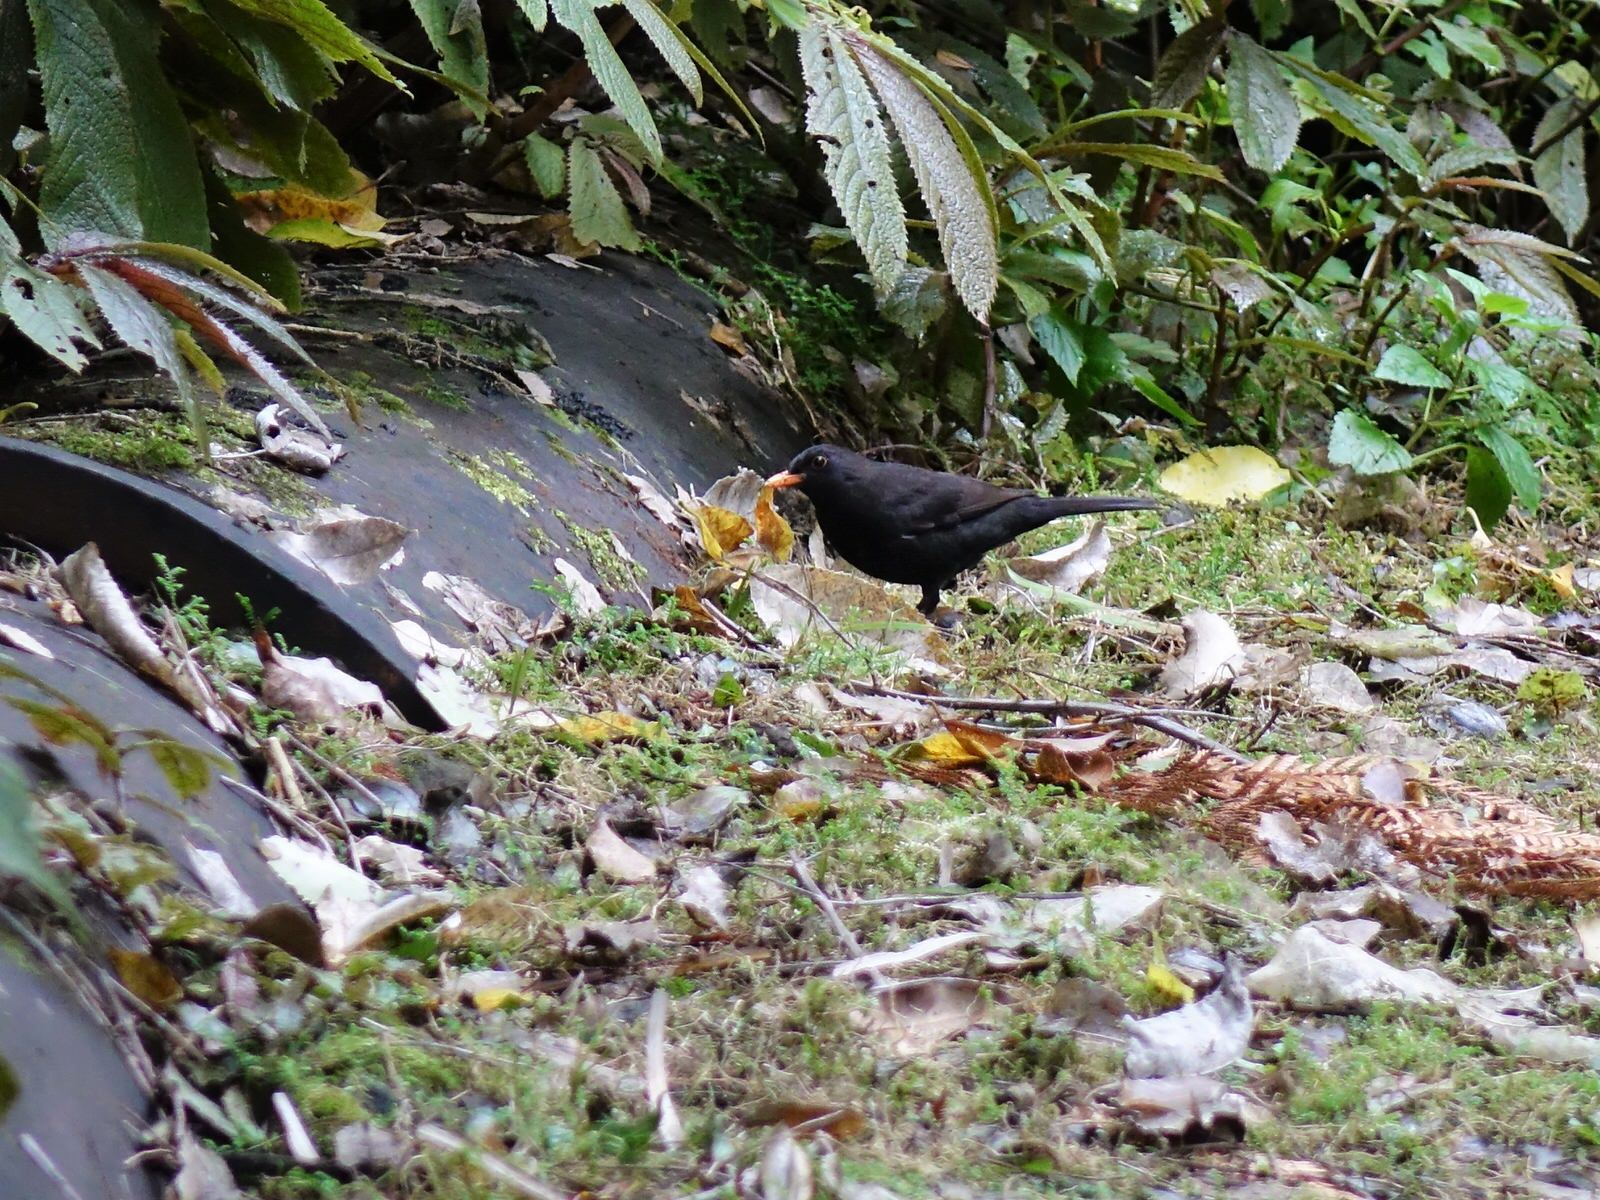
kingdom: Animalia
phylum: Chordata
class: Aves
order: Passeriformes
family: Turdidae
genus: Turdus
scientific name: Turdus merula
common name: Common blackbird
